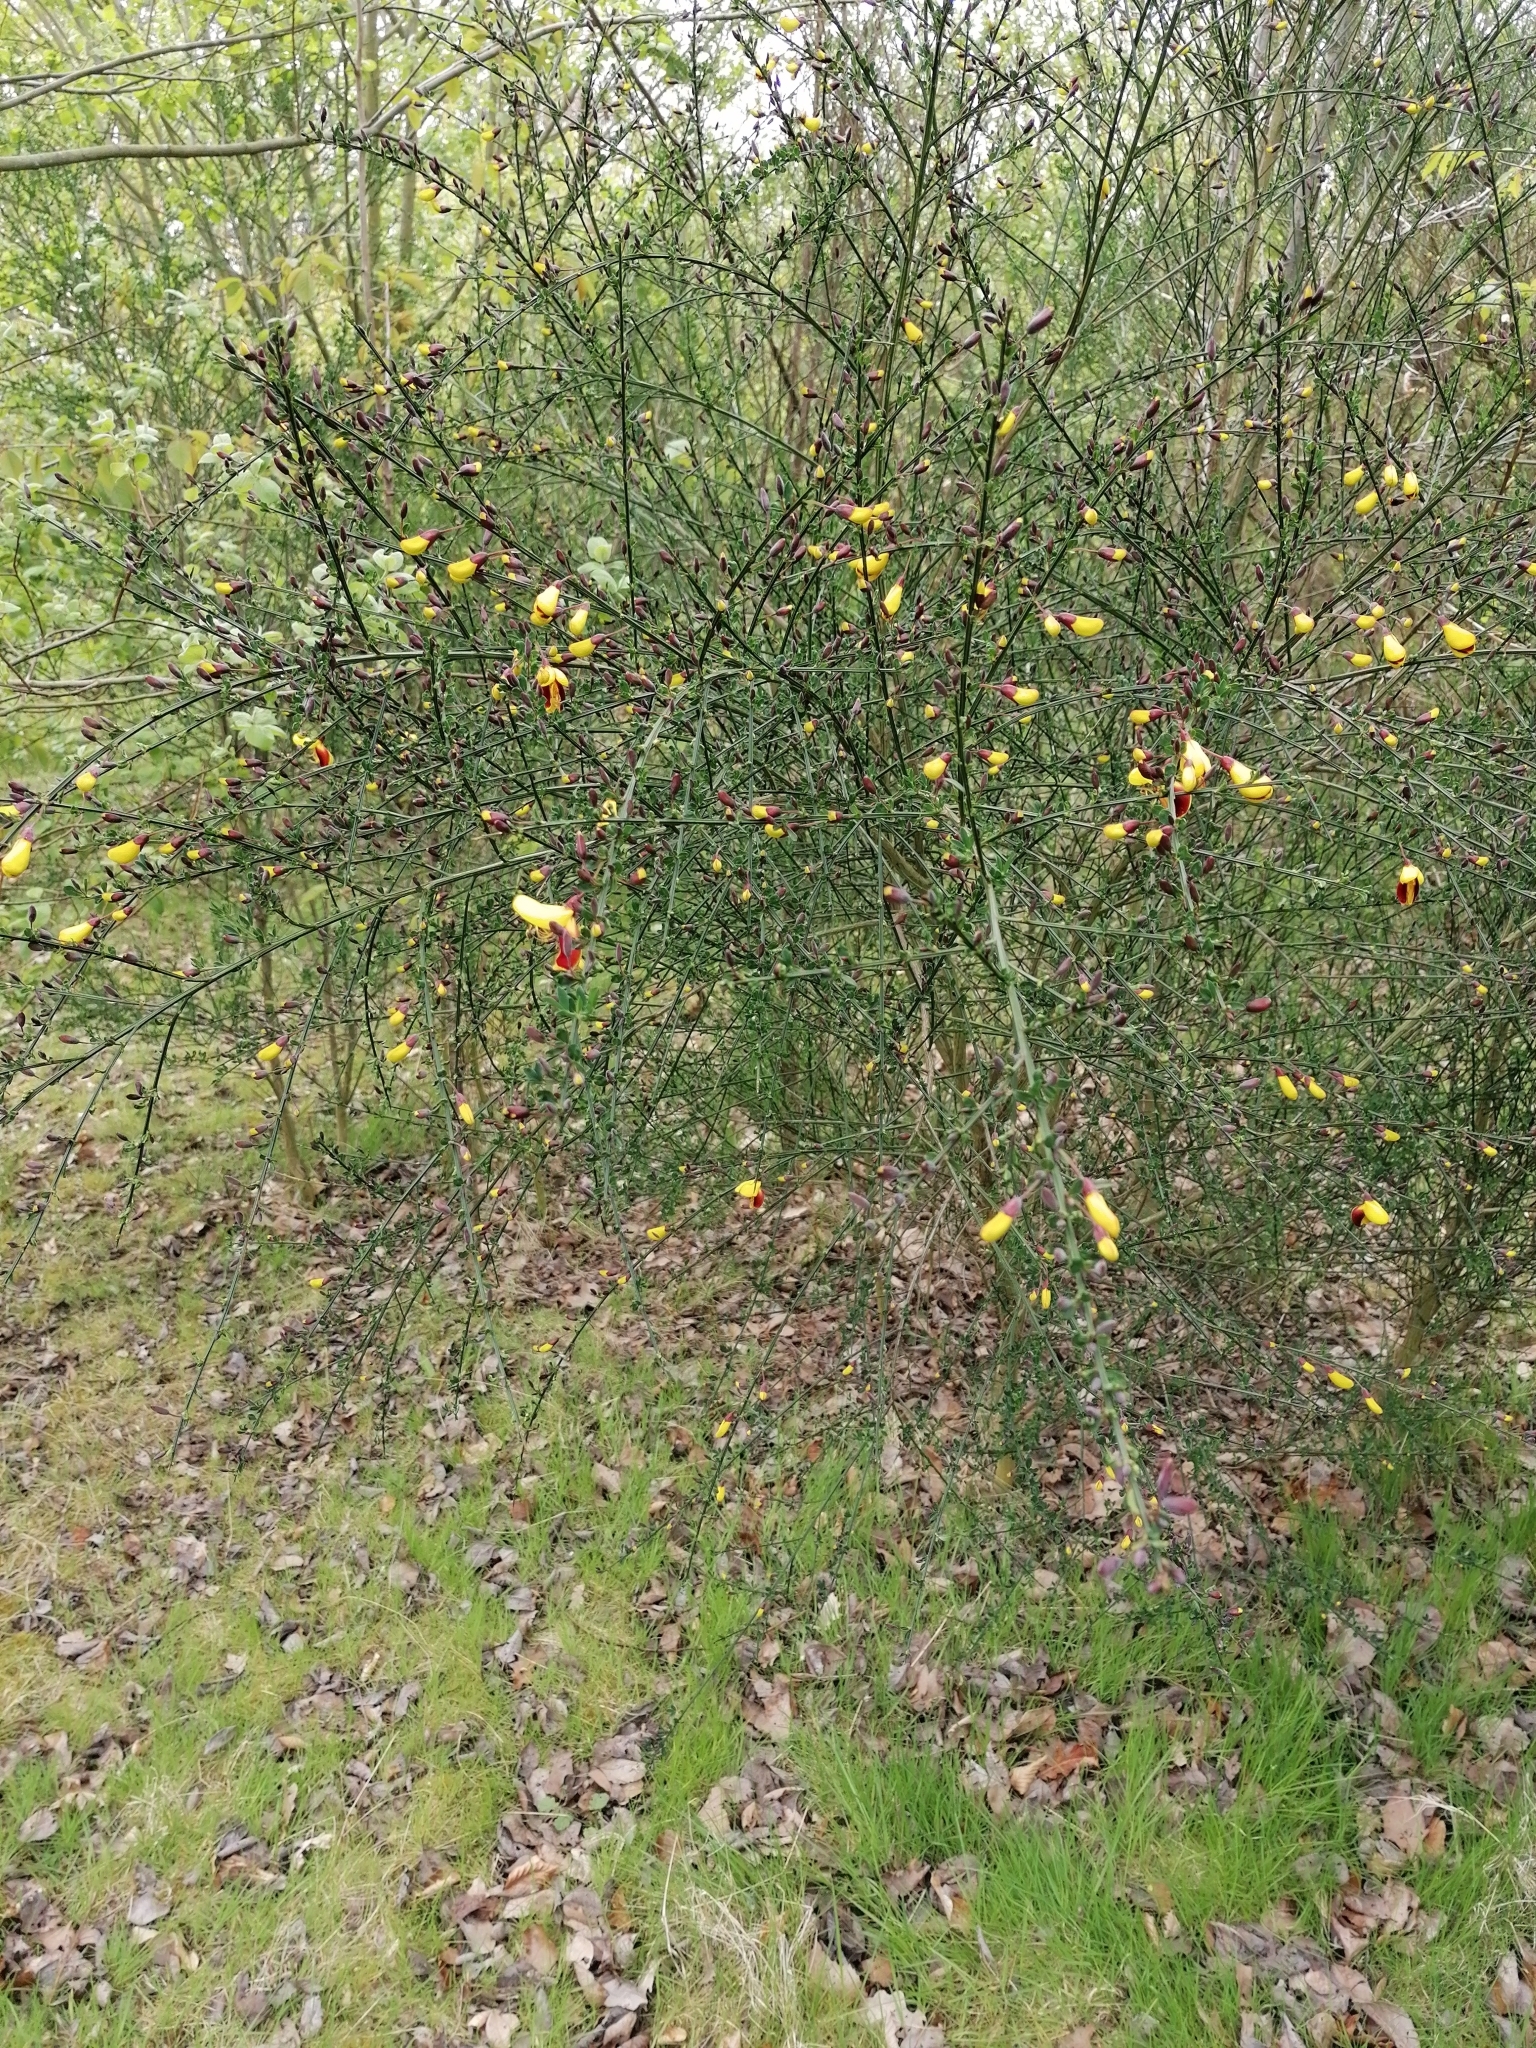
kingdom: Plantae
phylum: Tracheophyta
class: Magnoliopsida
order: Fabales
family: Fabaceae
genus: Cytisus
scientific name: Cytisus scoparius
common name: Scotch broom
